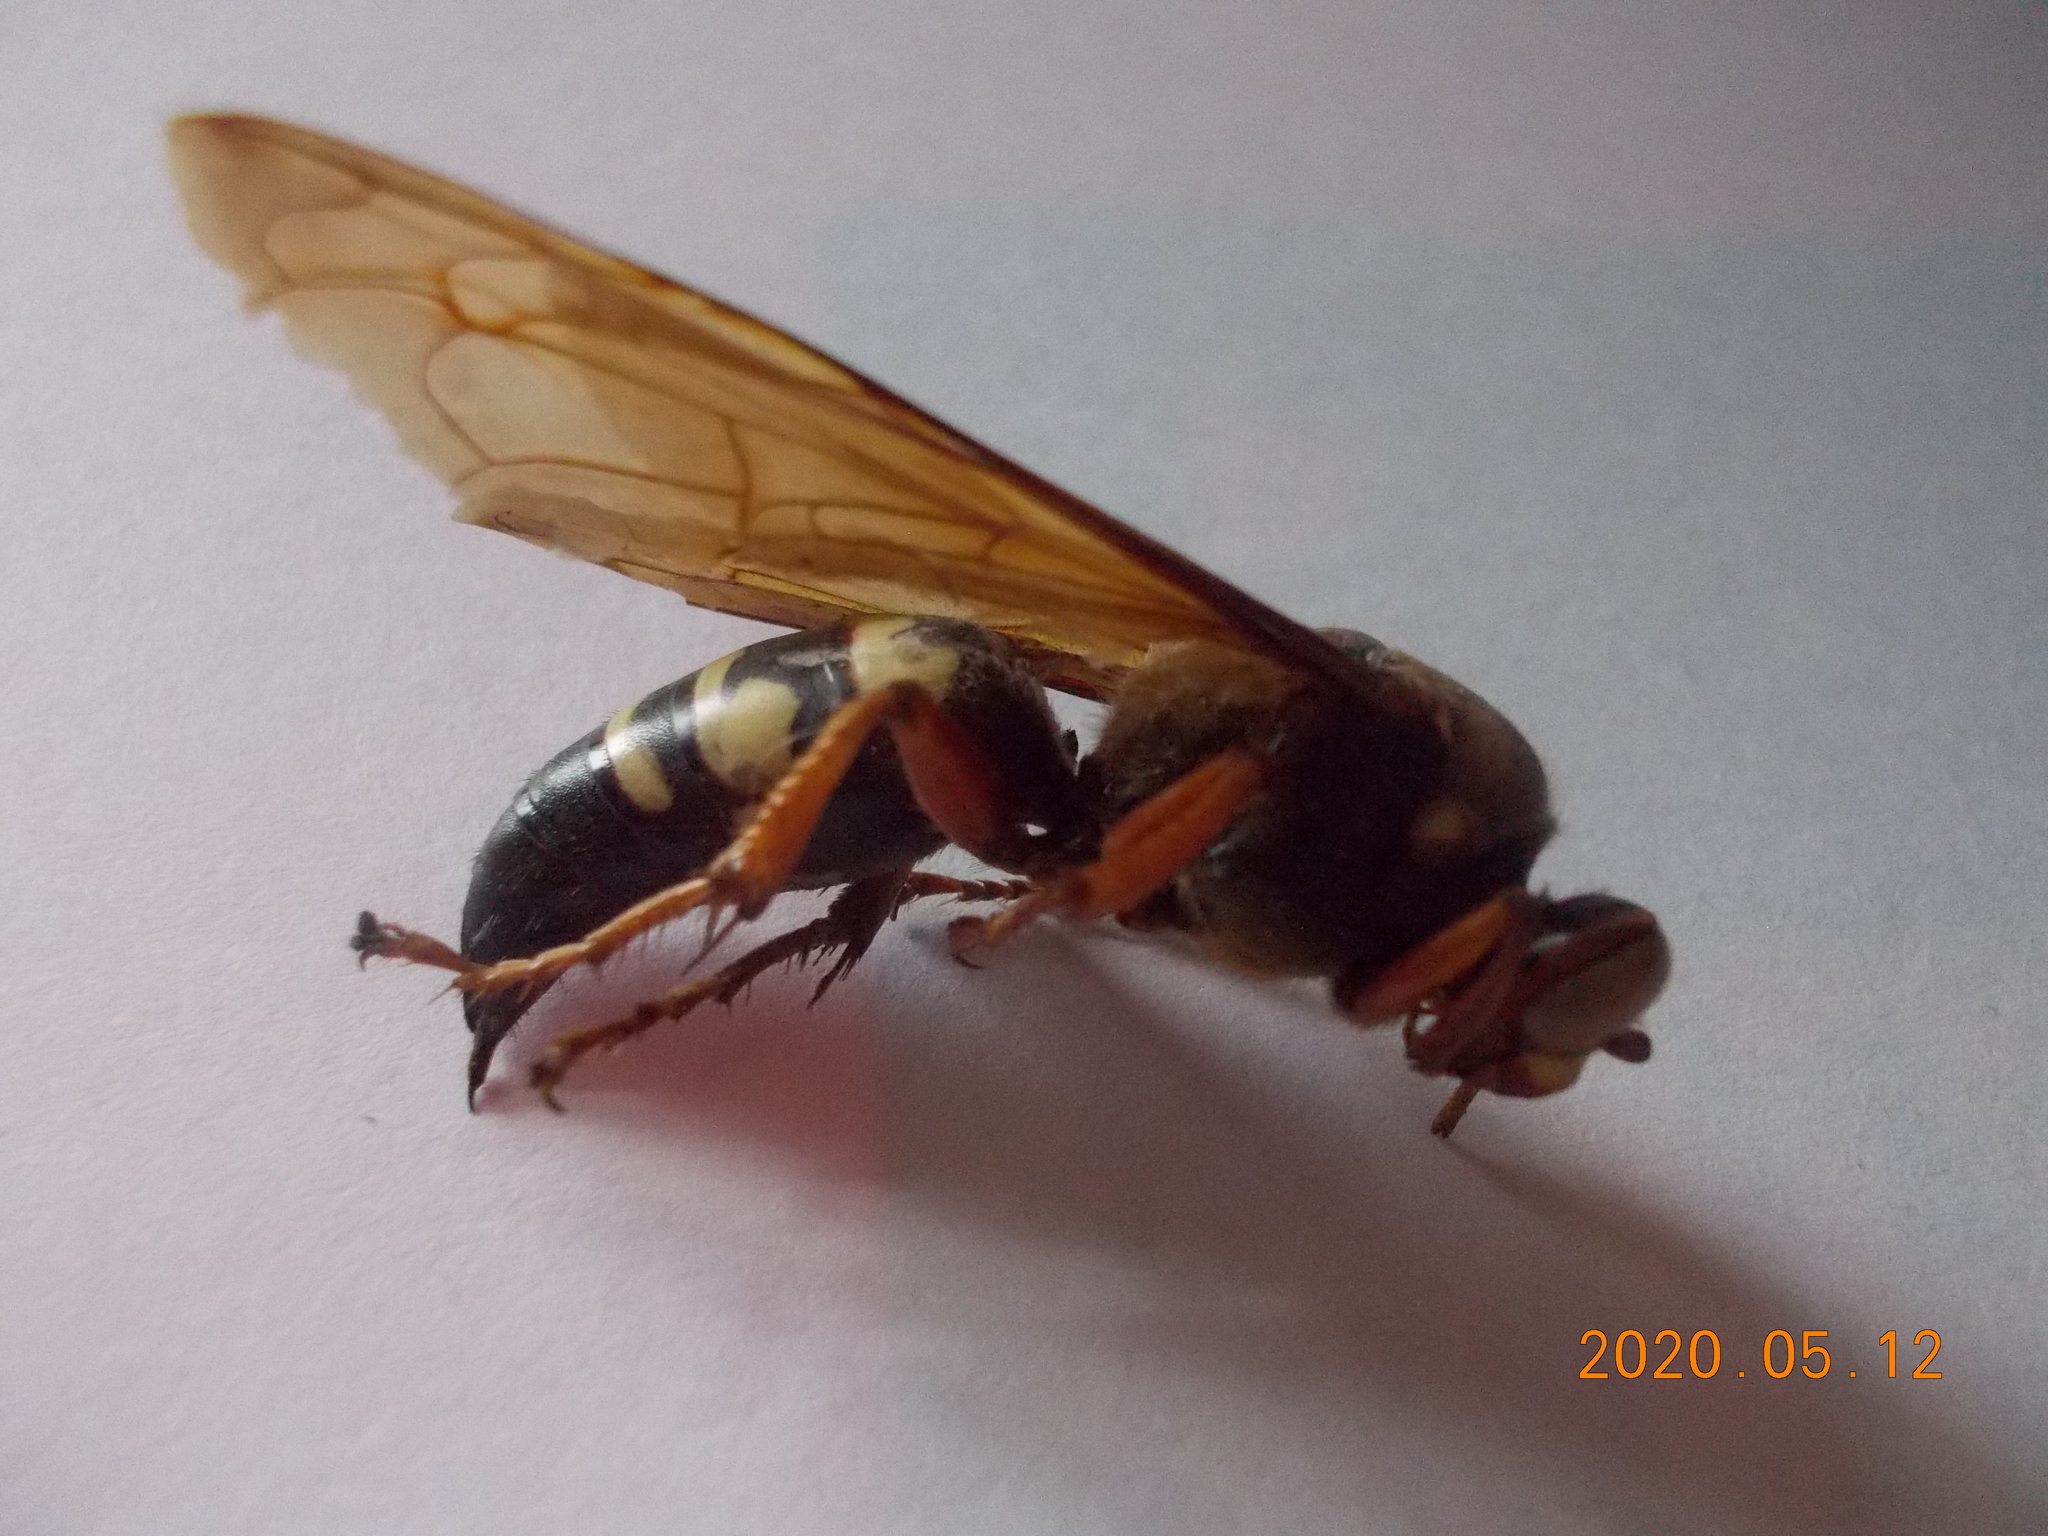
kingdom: Animalia
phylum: Arthropoda
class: Insecta
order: Hymenoptera
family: Crabronidae
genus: Sphecius
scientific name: Sphecius speciosus
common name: Cicada killer
